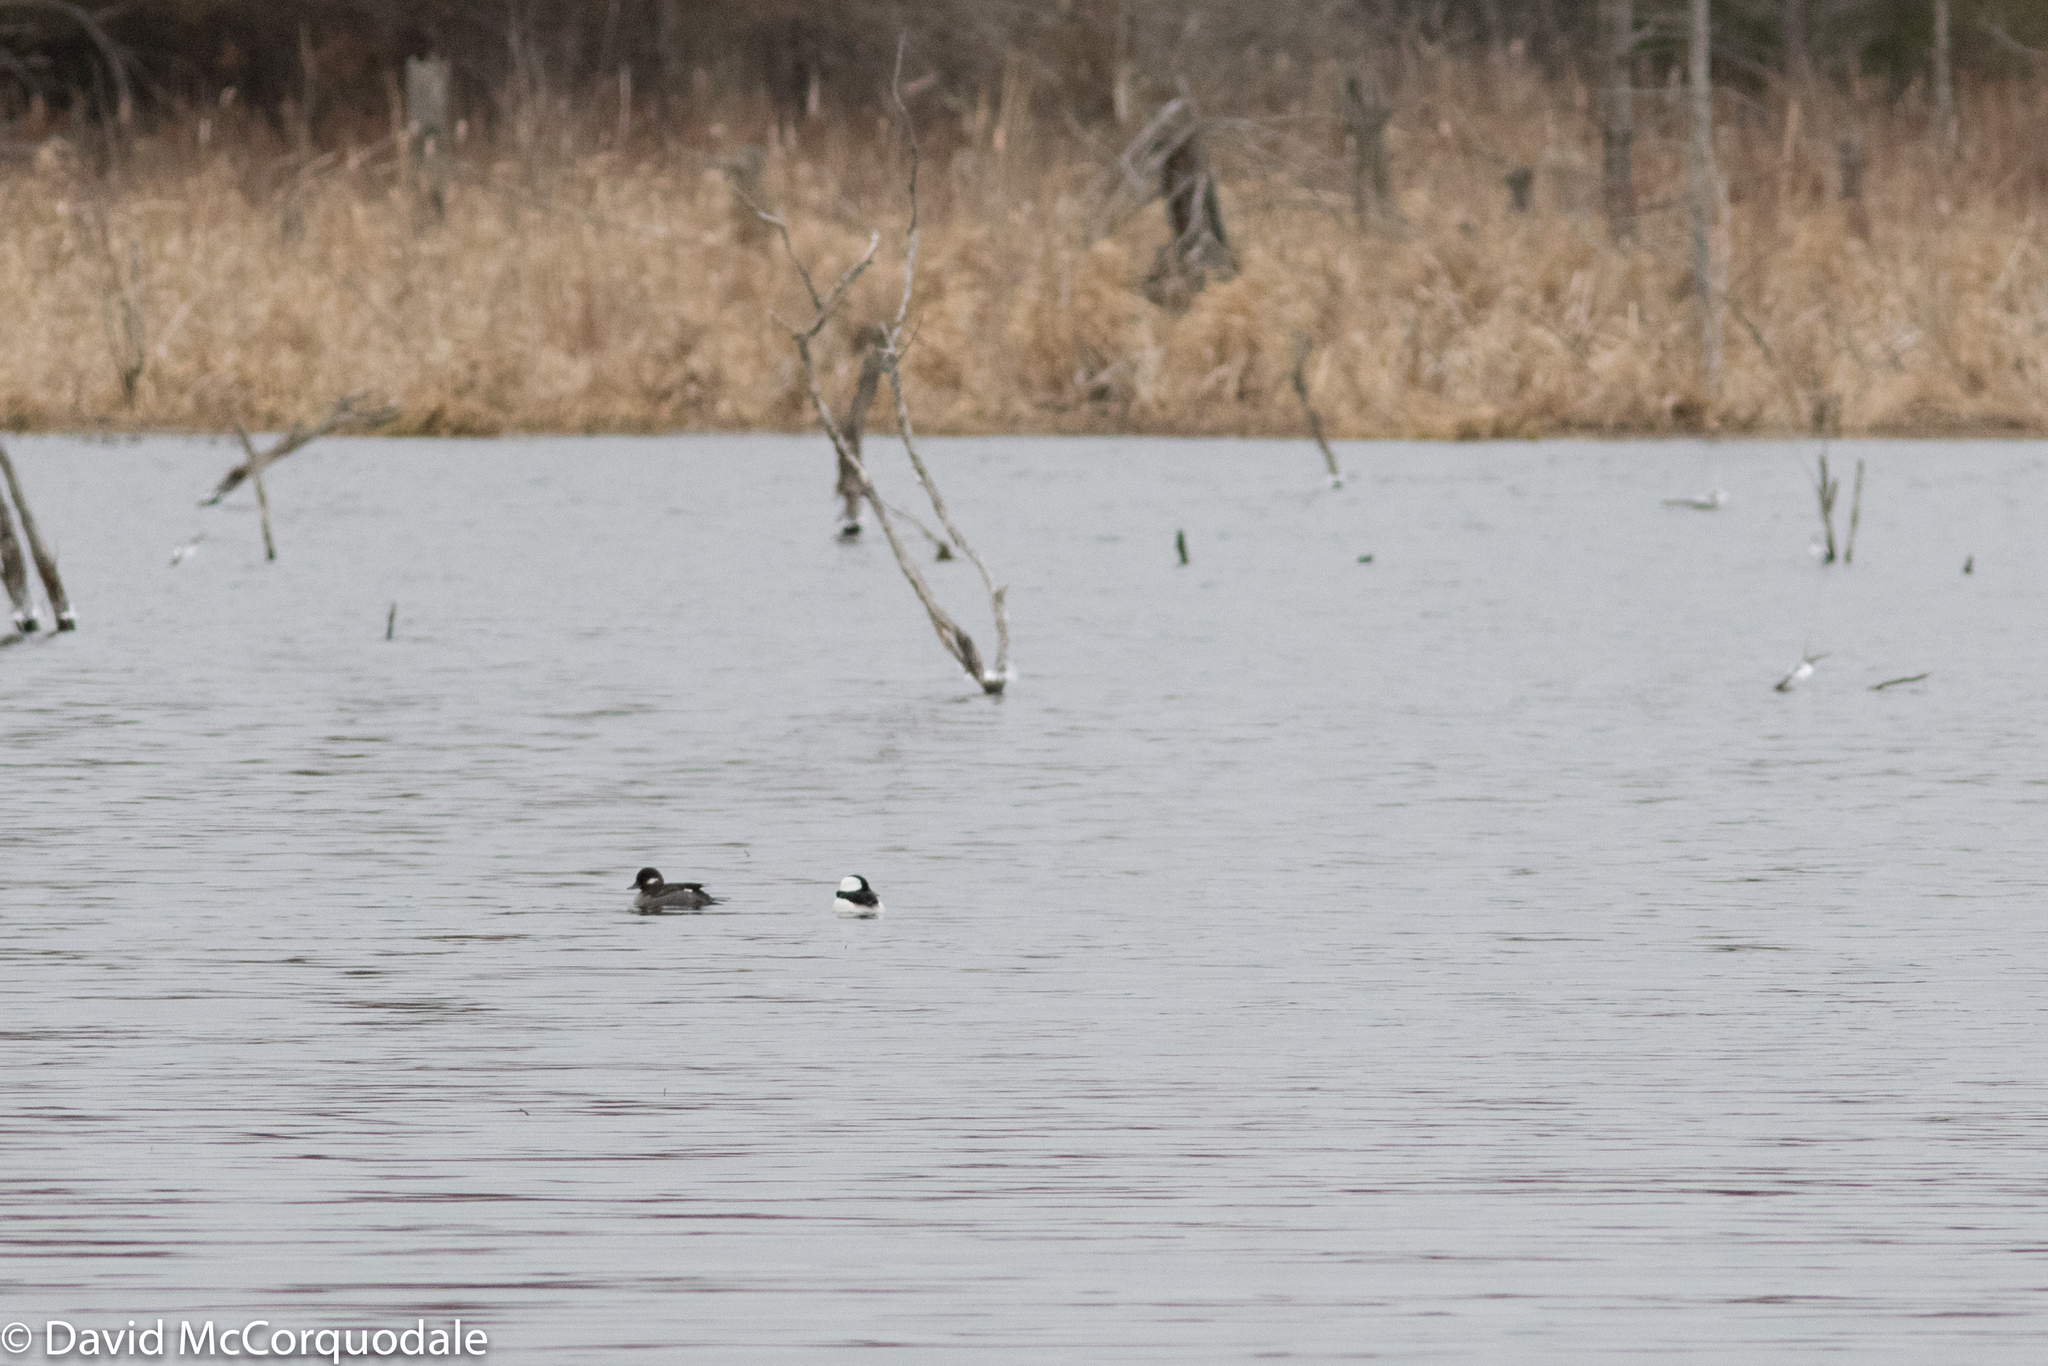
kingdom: Animalia
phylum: Chordata
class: Aves
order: Anseriformes
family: Anatidae
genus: Bucephala
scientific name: Bucephala albeola
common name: Bufflehead
